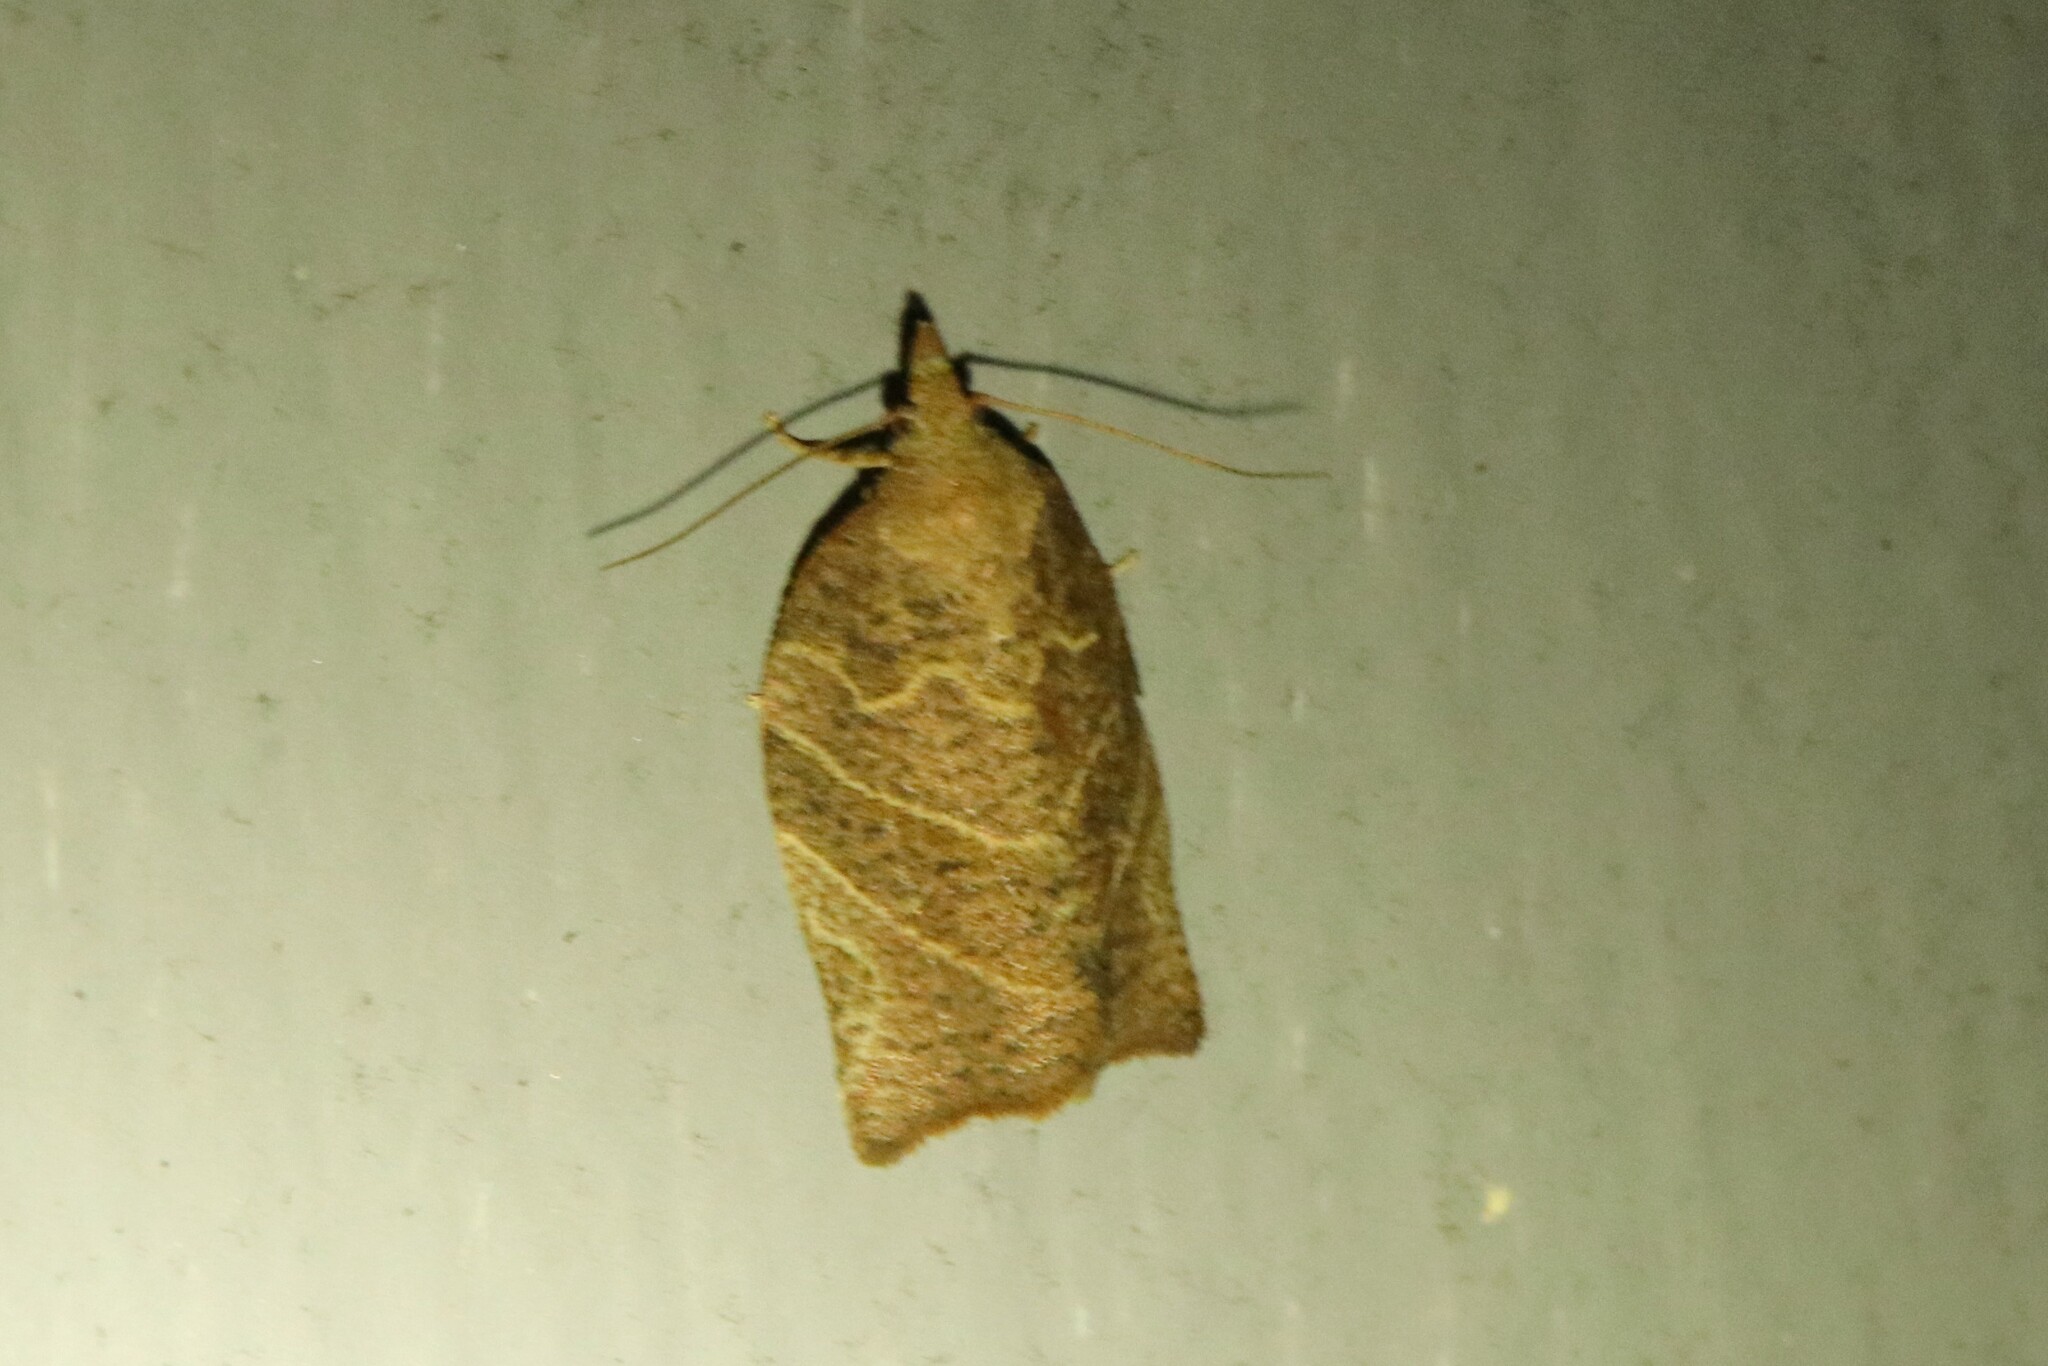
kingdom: Animalia
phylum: Arthropoda
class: Insecta
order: Lepidoptera
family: Tortricidae
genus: Pandemis
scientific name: Pandemis limitata
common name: Three-lined leafroller moth
